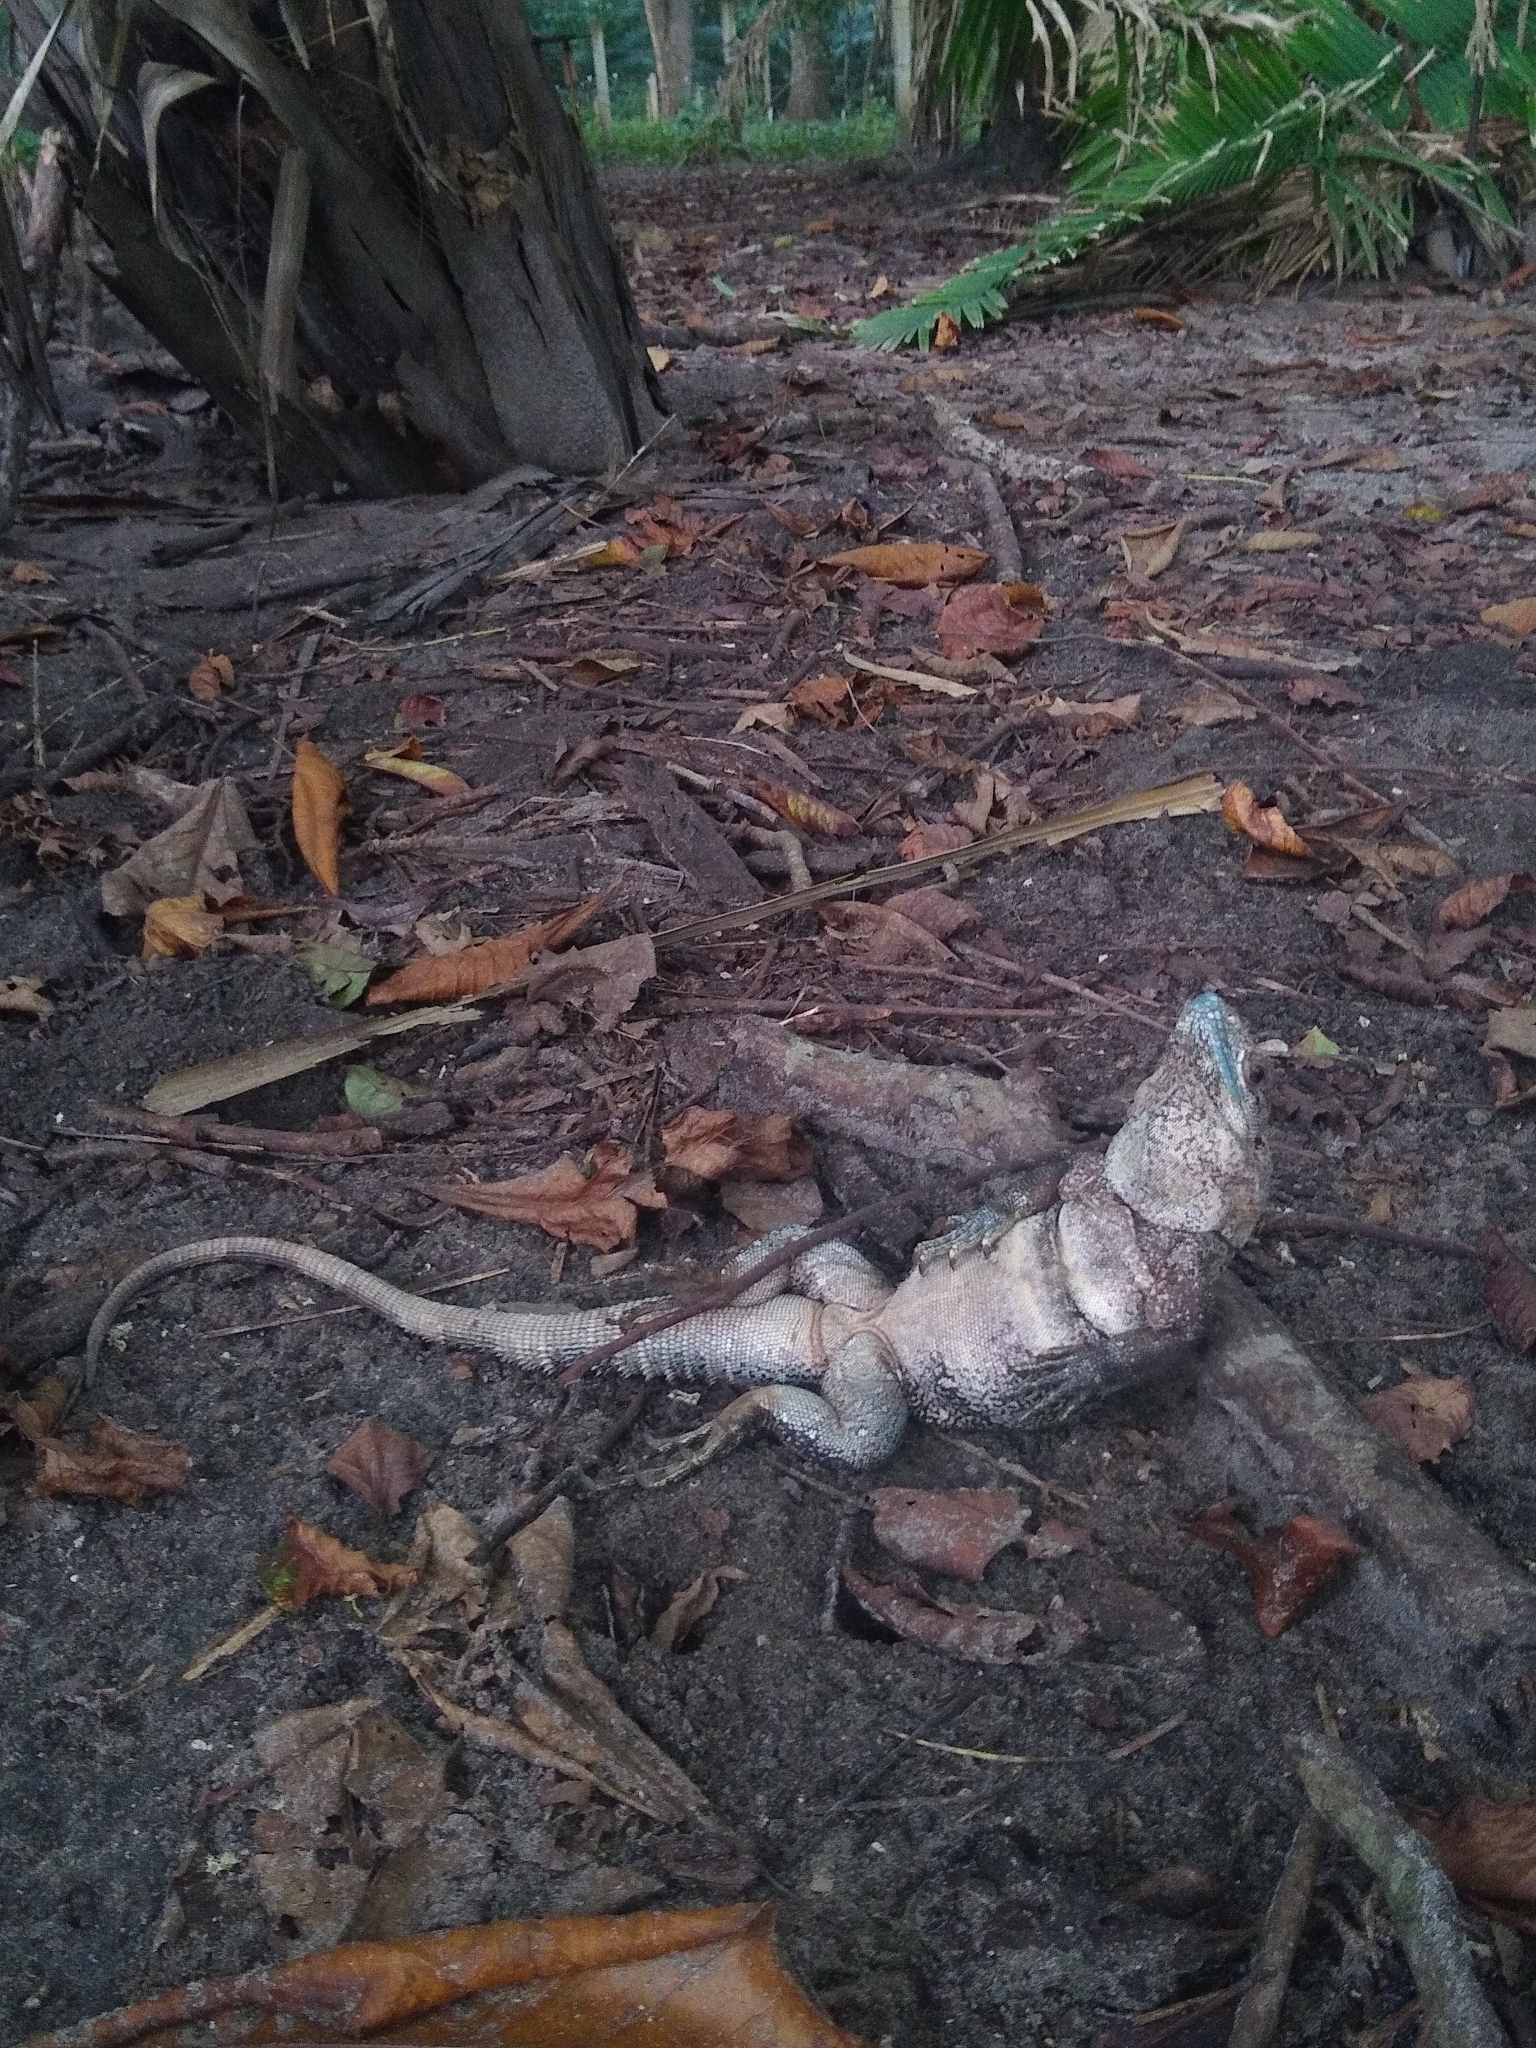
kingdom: Animalia
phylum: Chordata
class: Squamata
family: Iguanidae
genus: Ctenosaura
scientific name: Ctenosaura similis
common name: Black spiny-tailed iguana
